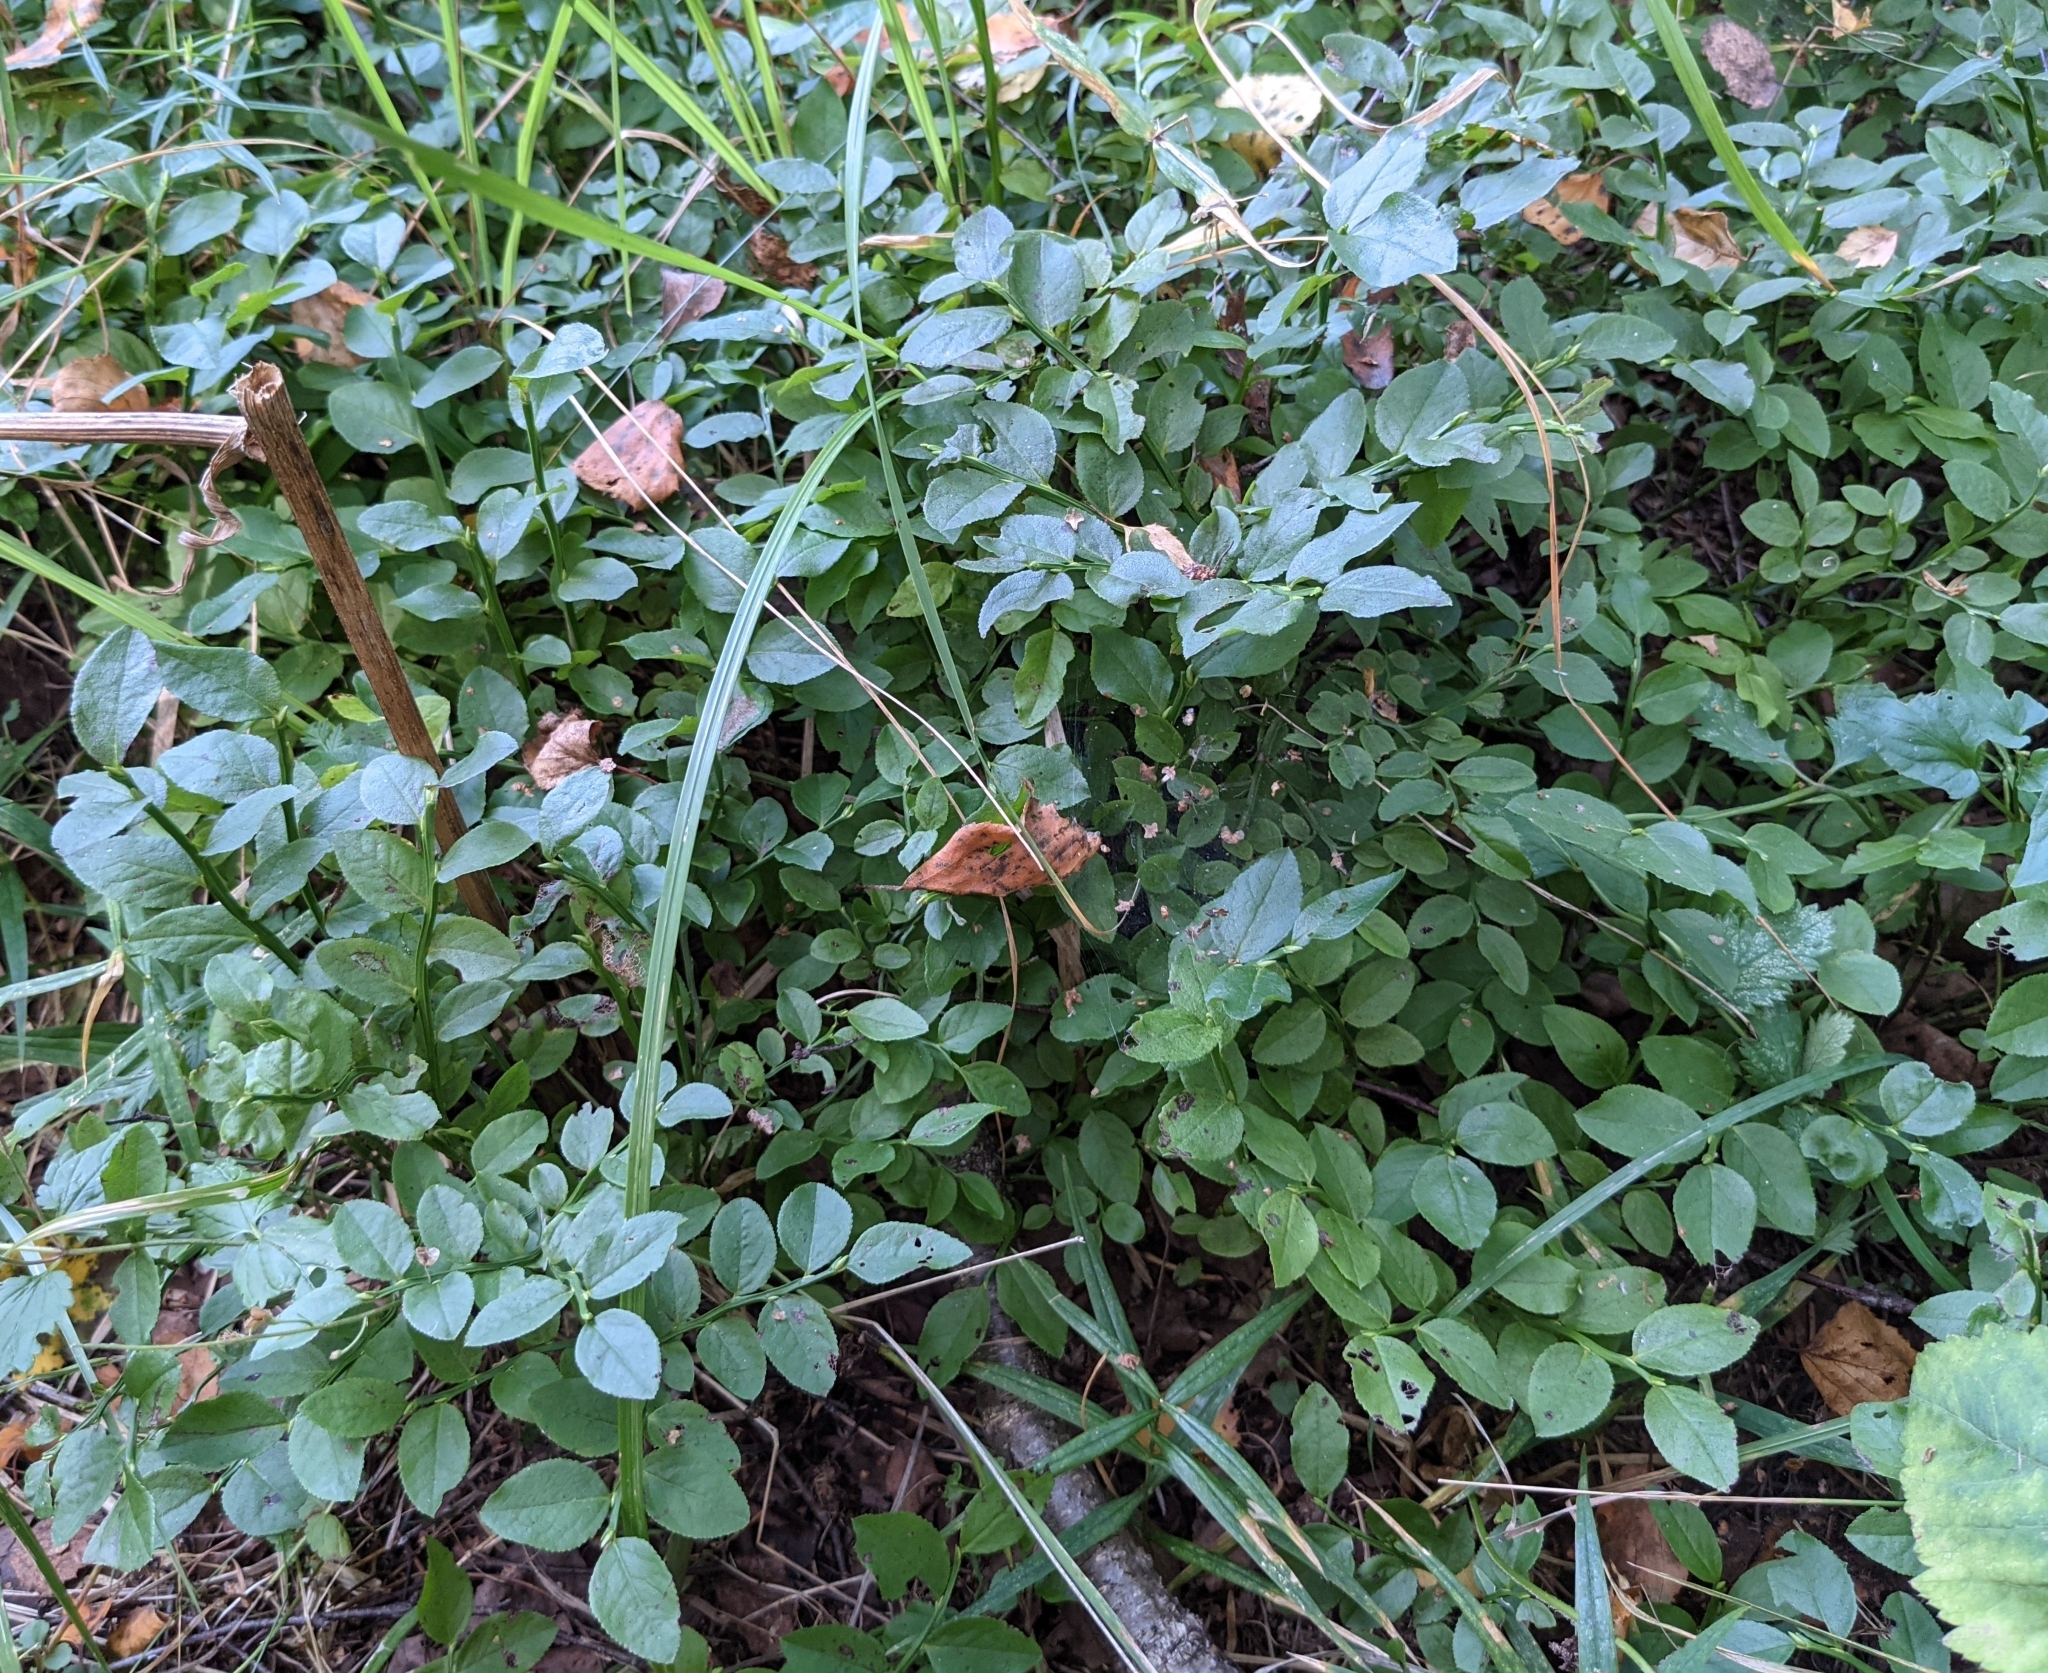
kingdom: Plantae
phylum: Tracheophyta
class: Magnoliopsida
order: Ericales
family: Ericaceae
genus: Vaccinium
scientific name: Vaccinium myrtillus
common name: Bilberry
